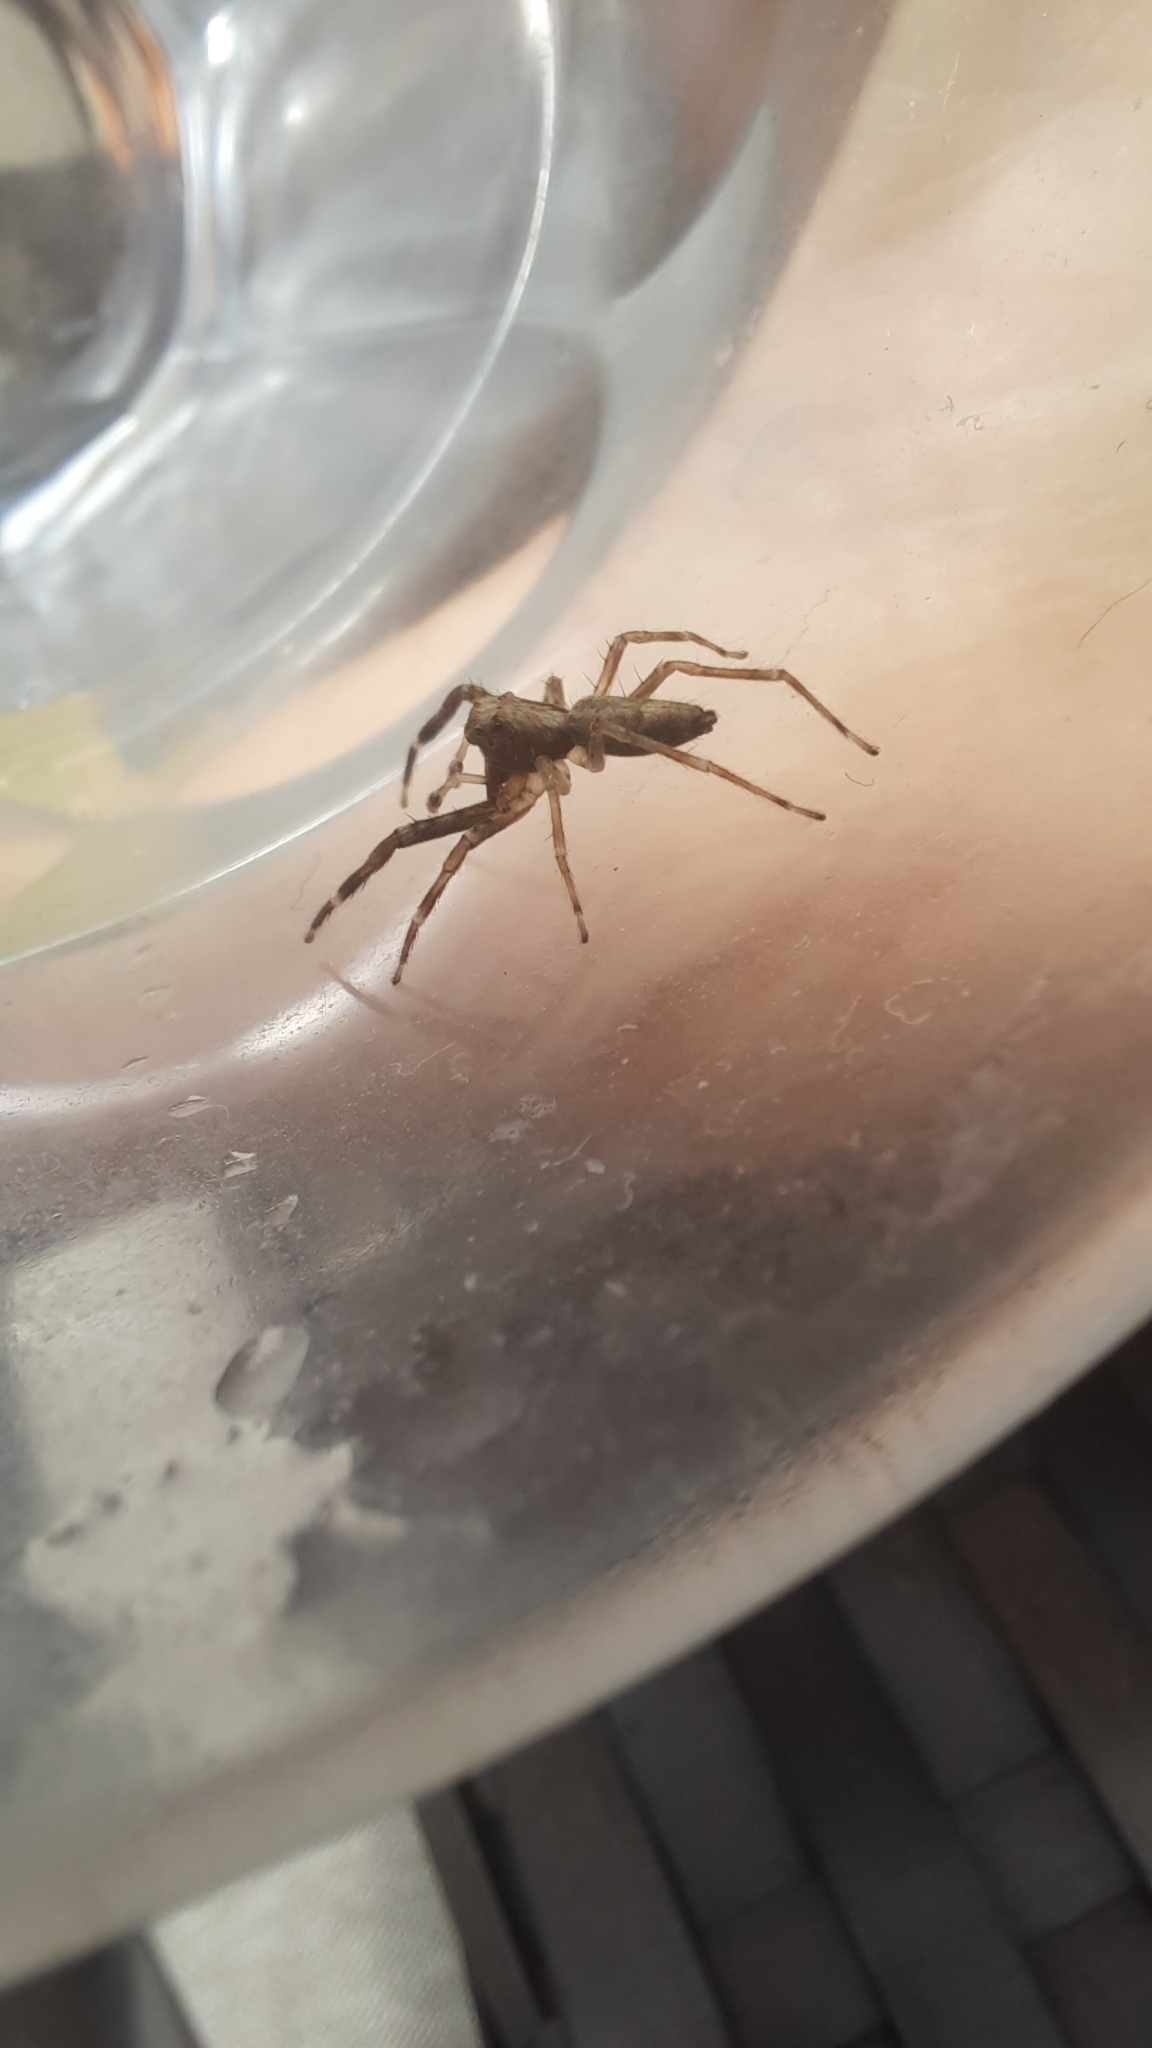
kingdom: Animalia
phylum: Arthropoda
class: Arachnida
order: Araneae
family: Salticidae
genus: Helpis
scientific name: Helpis minitabunda
